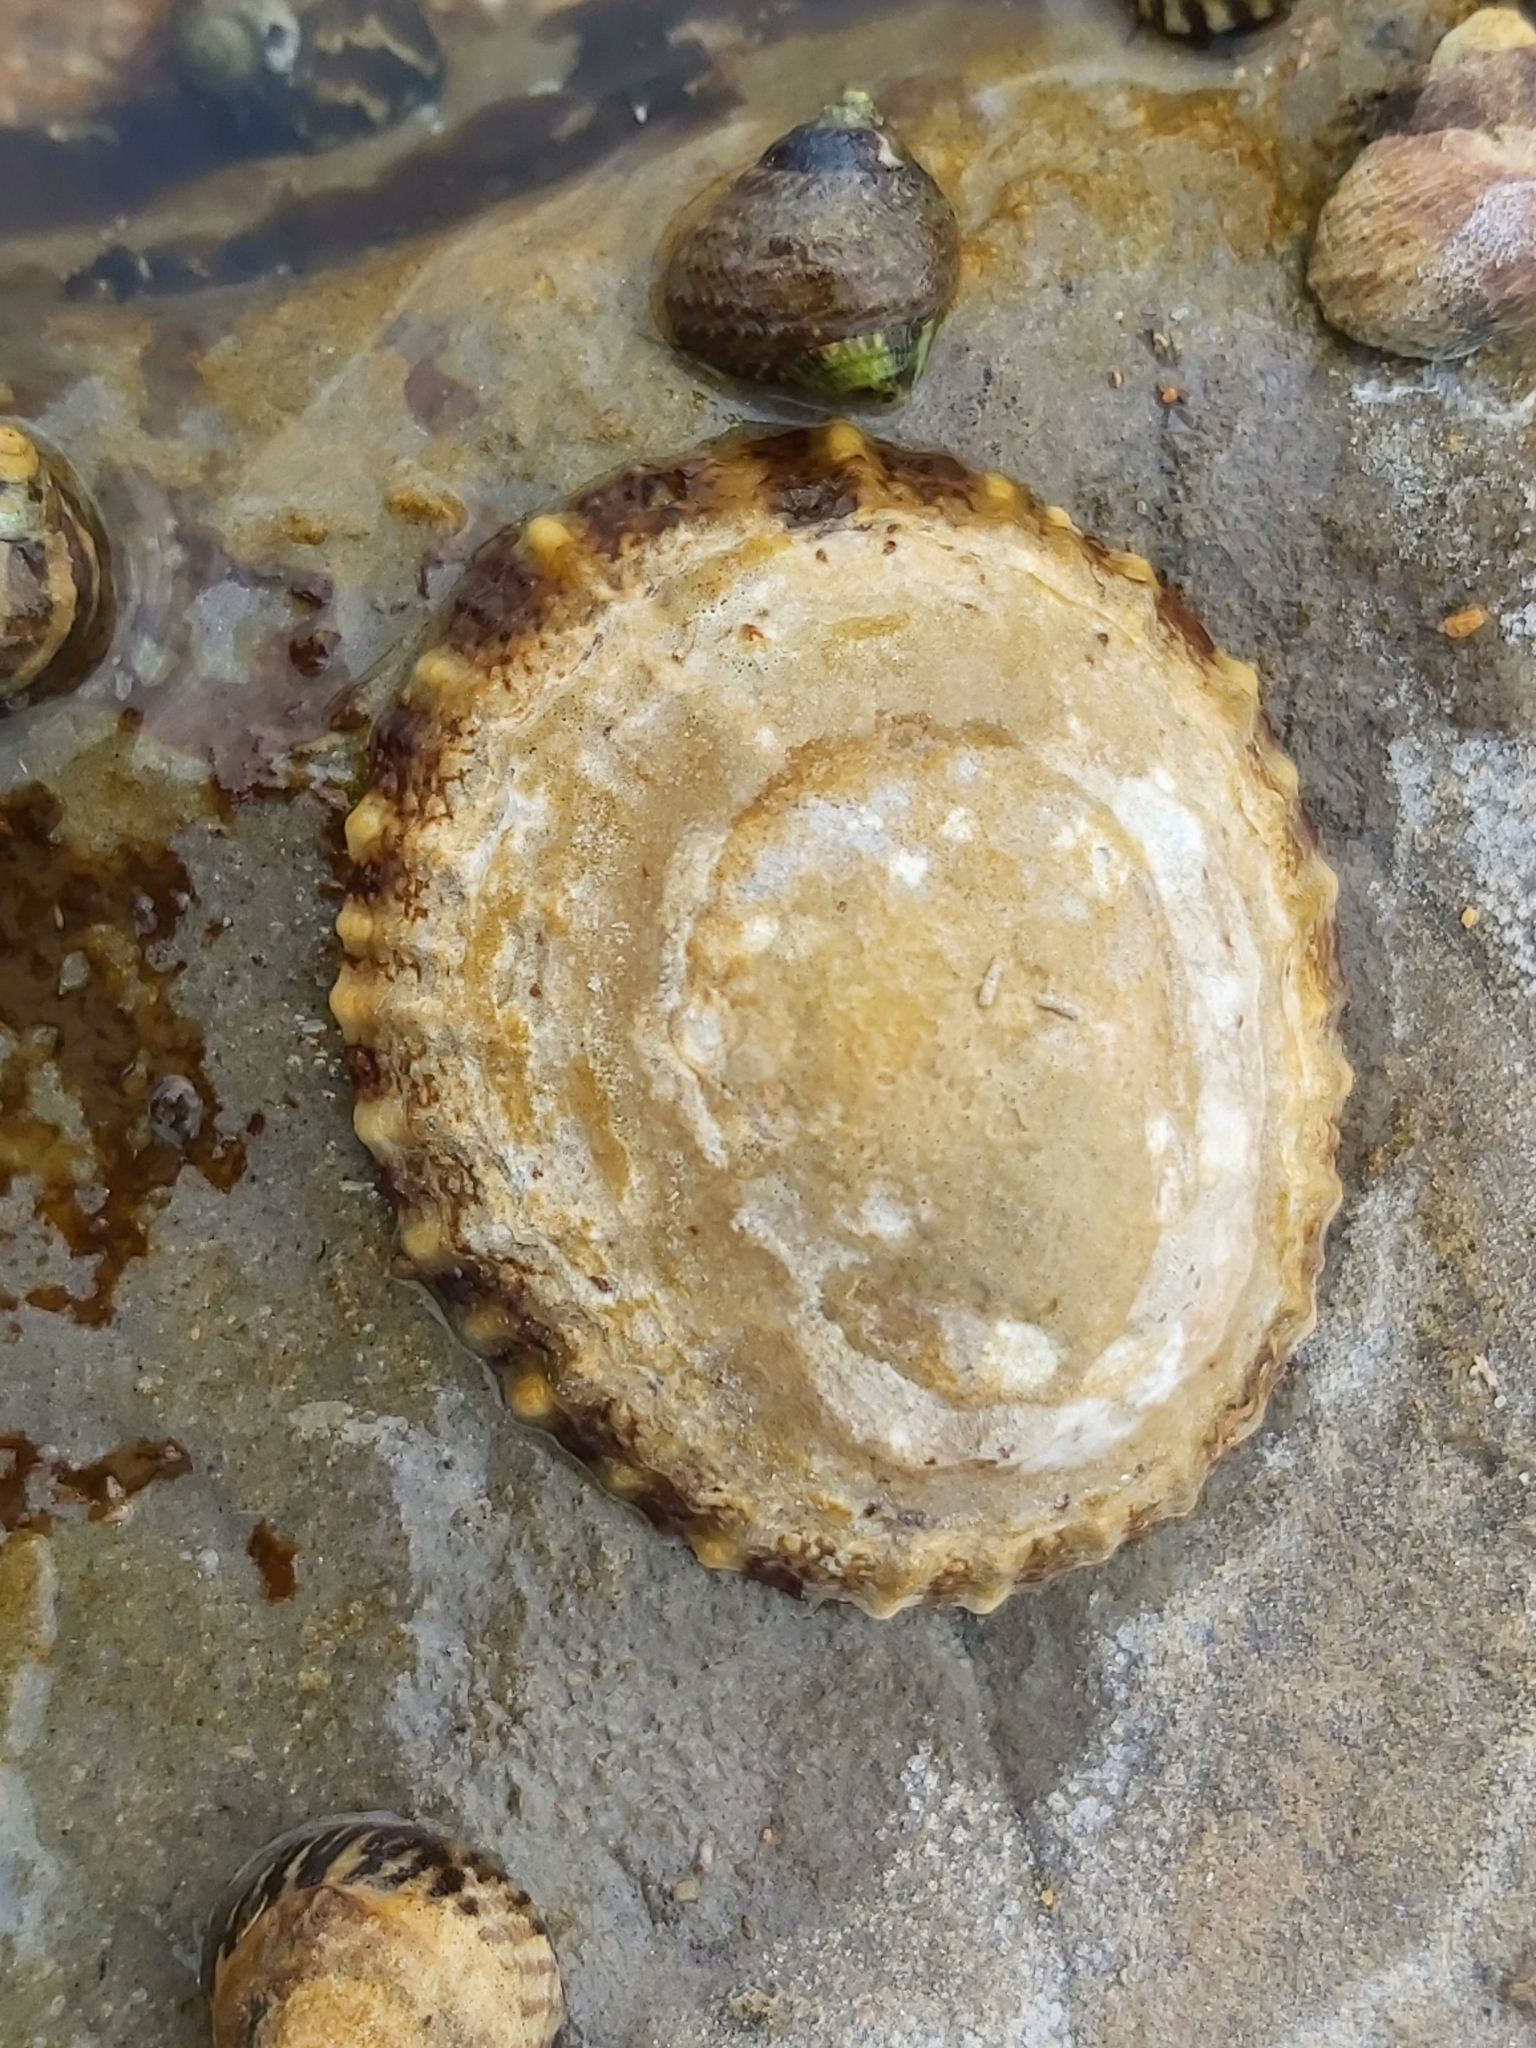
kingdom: Animalia
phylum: Mollusca
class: Gastropoda
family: Nacellidae
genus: Cellana
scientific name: Cellana tramoserica
